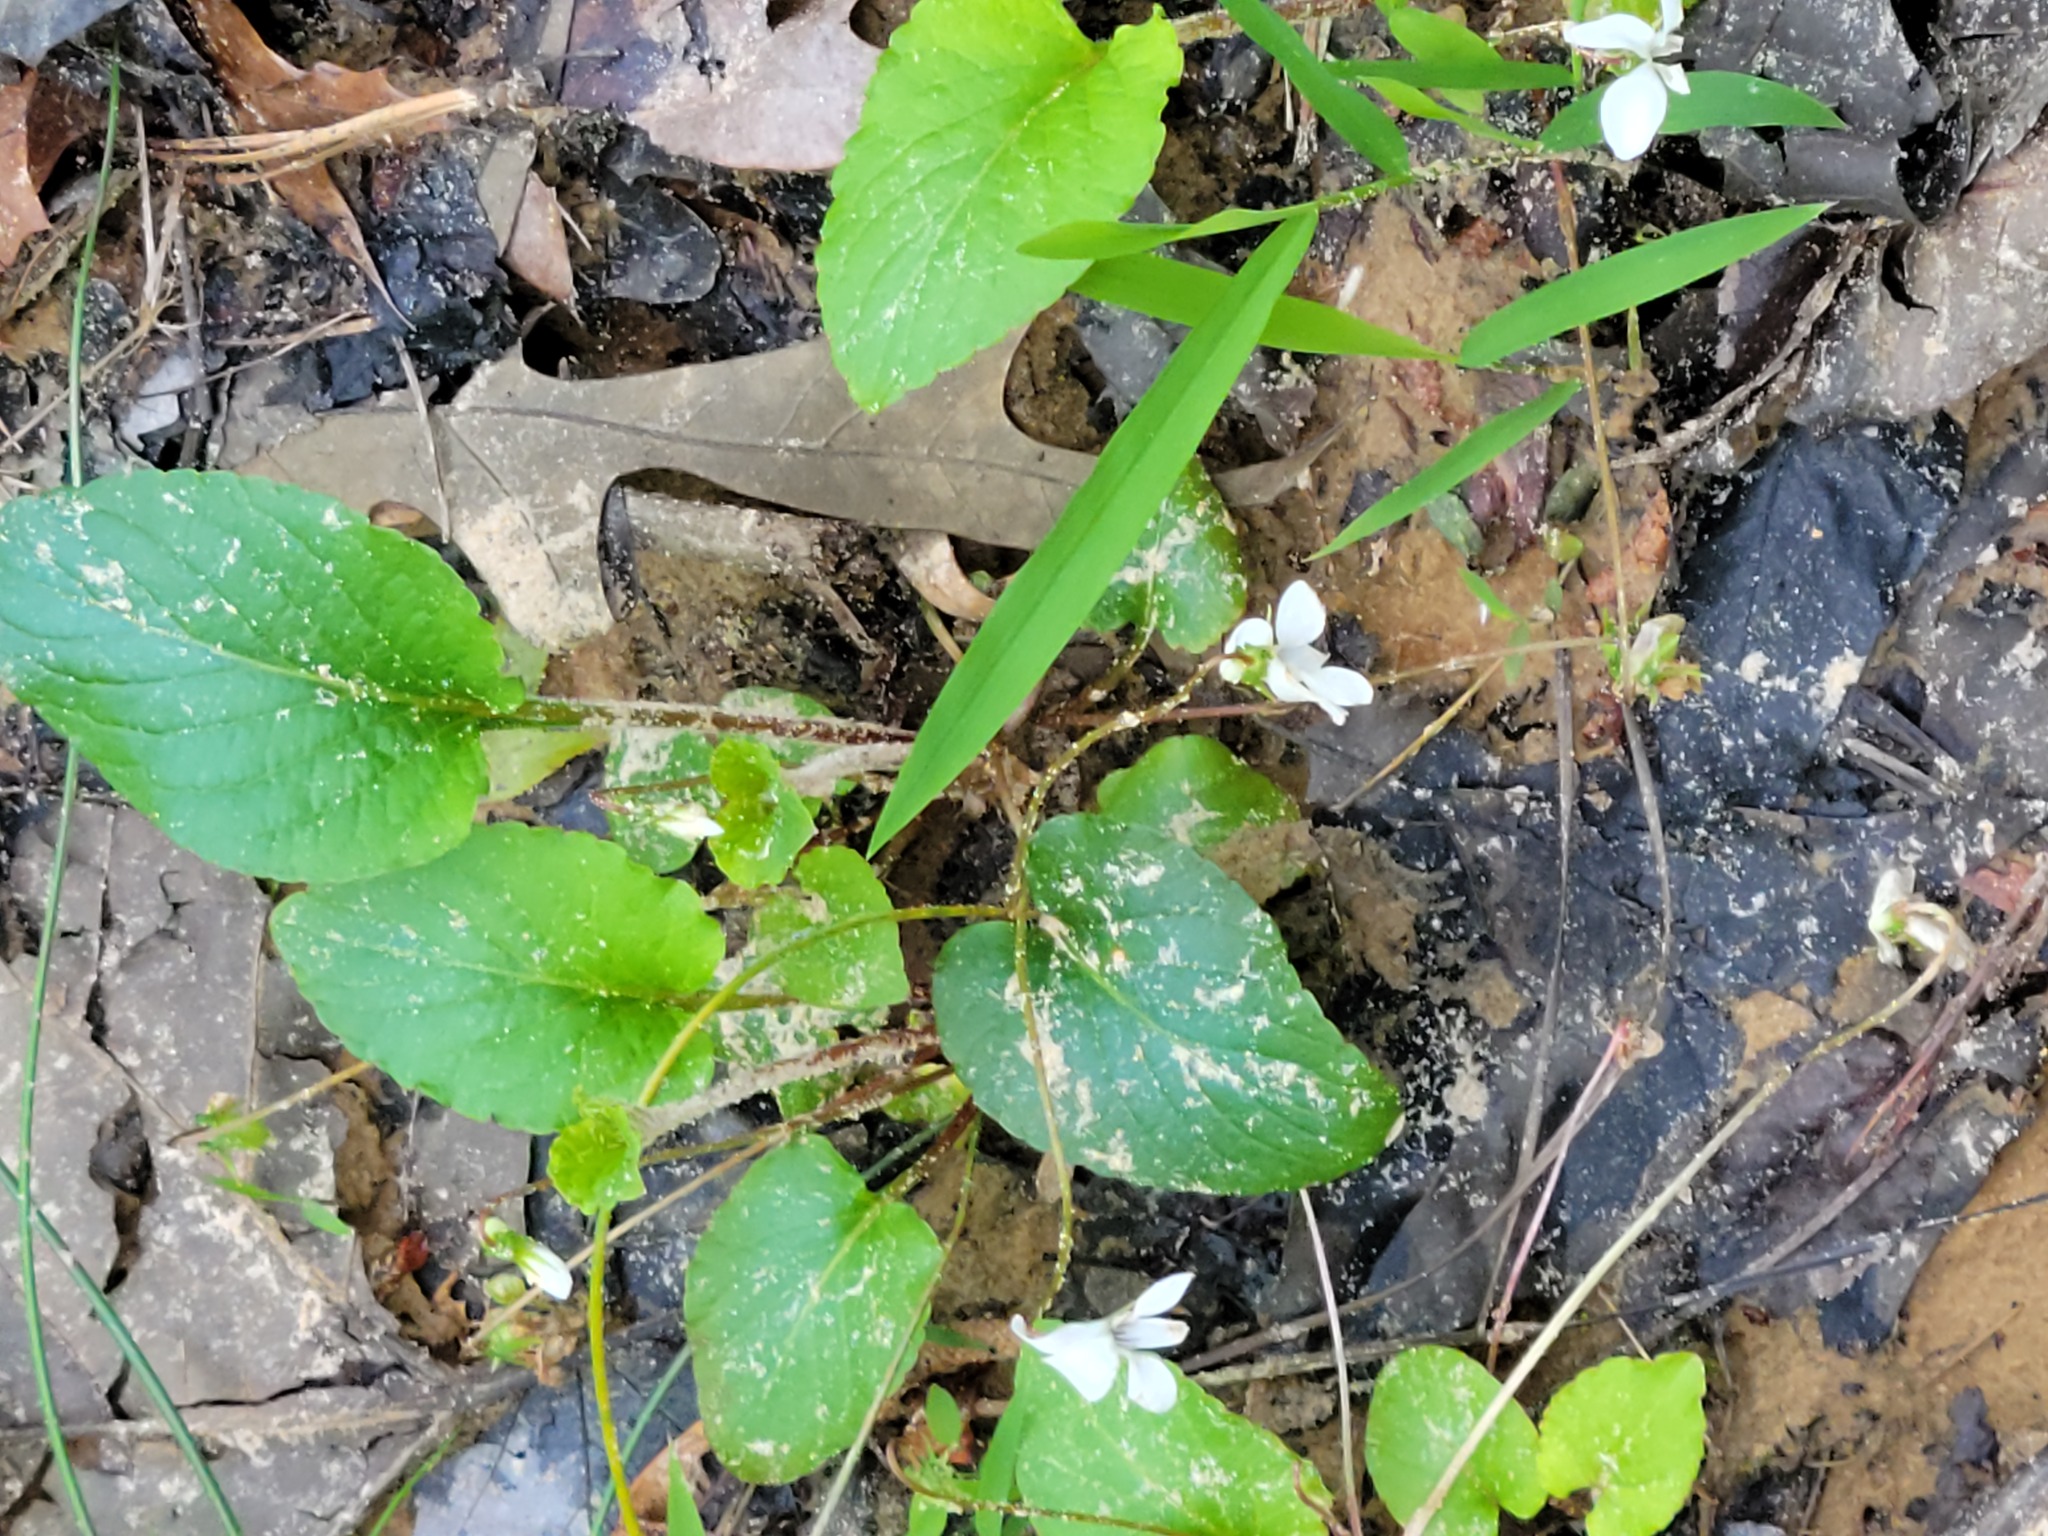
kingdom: Plantae
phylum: Tracheophyta
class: Magnoliopsida
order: Malpighiales
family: Violaceae
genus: Viola
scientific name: Viola primulifolia
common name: Primrose-leaf violet
